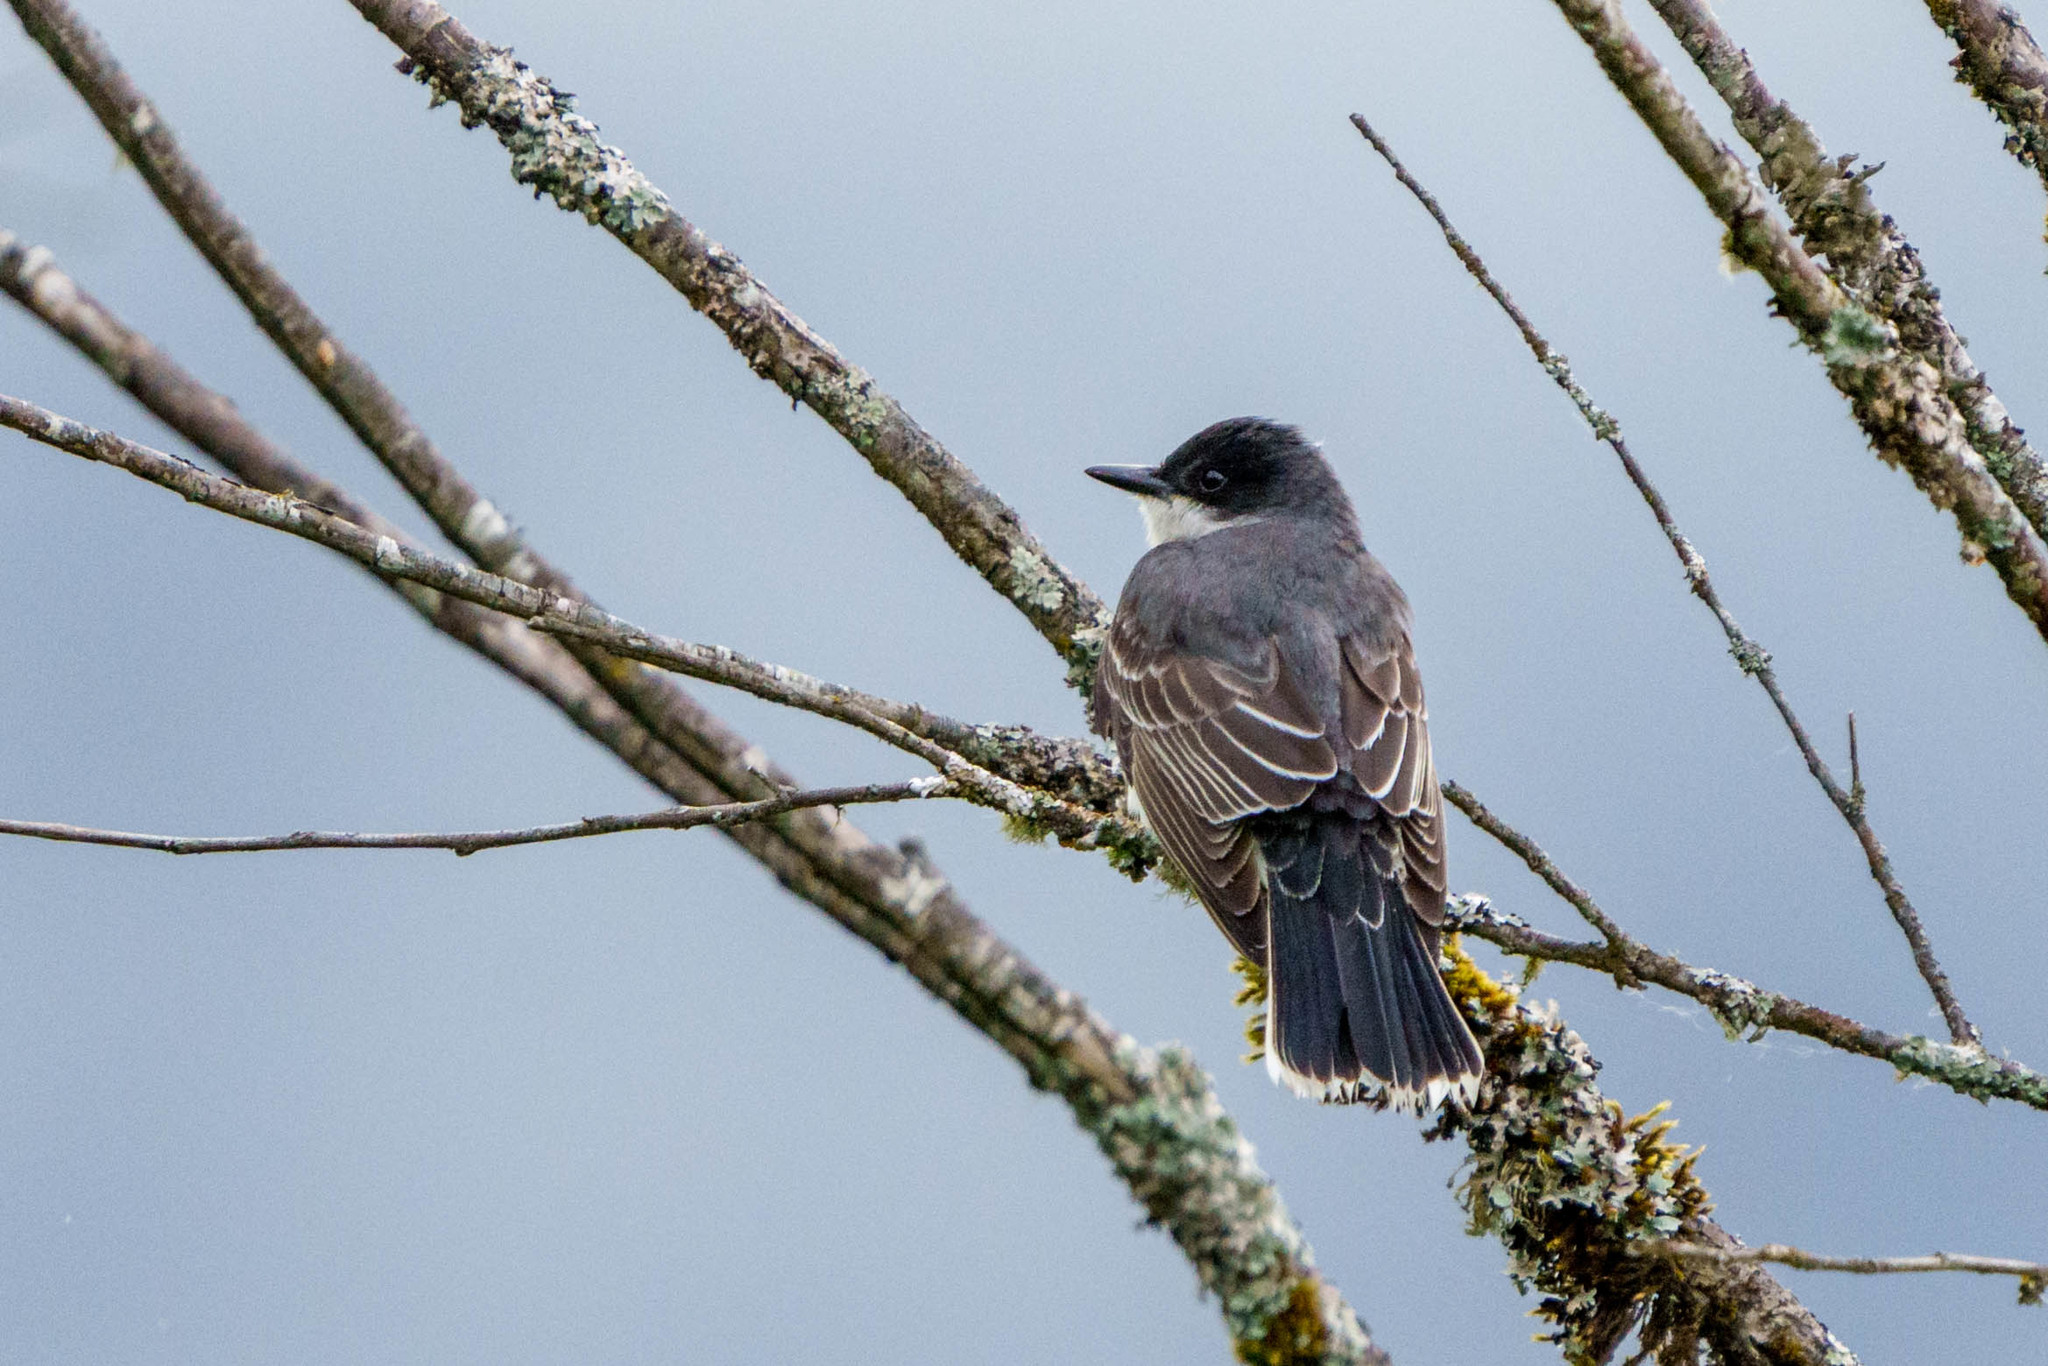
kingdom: Animalia
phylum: Chordata
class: Aves
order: Passeriformes
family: Tyrannidae
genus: Tyrannus
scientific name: Tyrannus tyrannus
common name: Eastern kingbird
